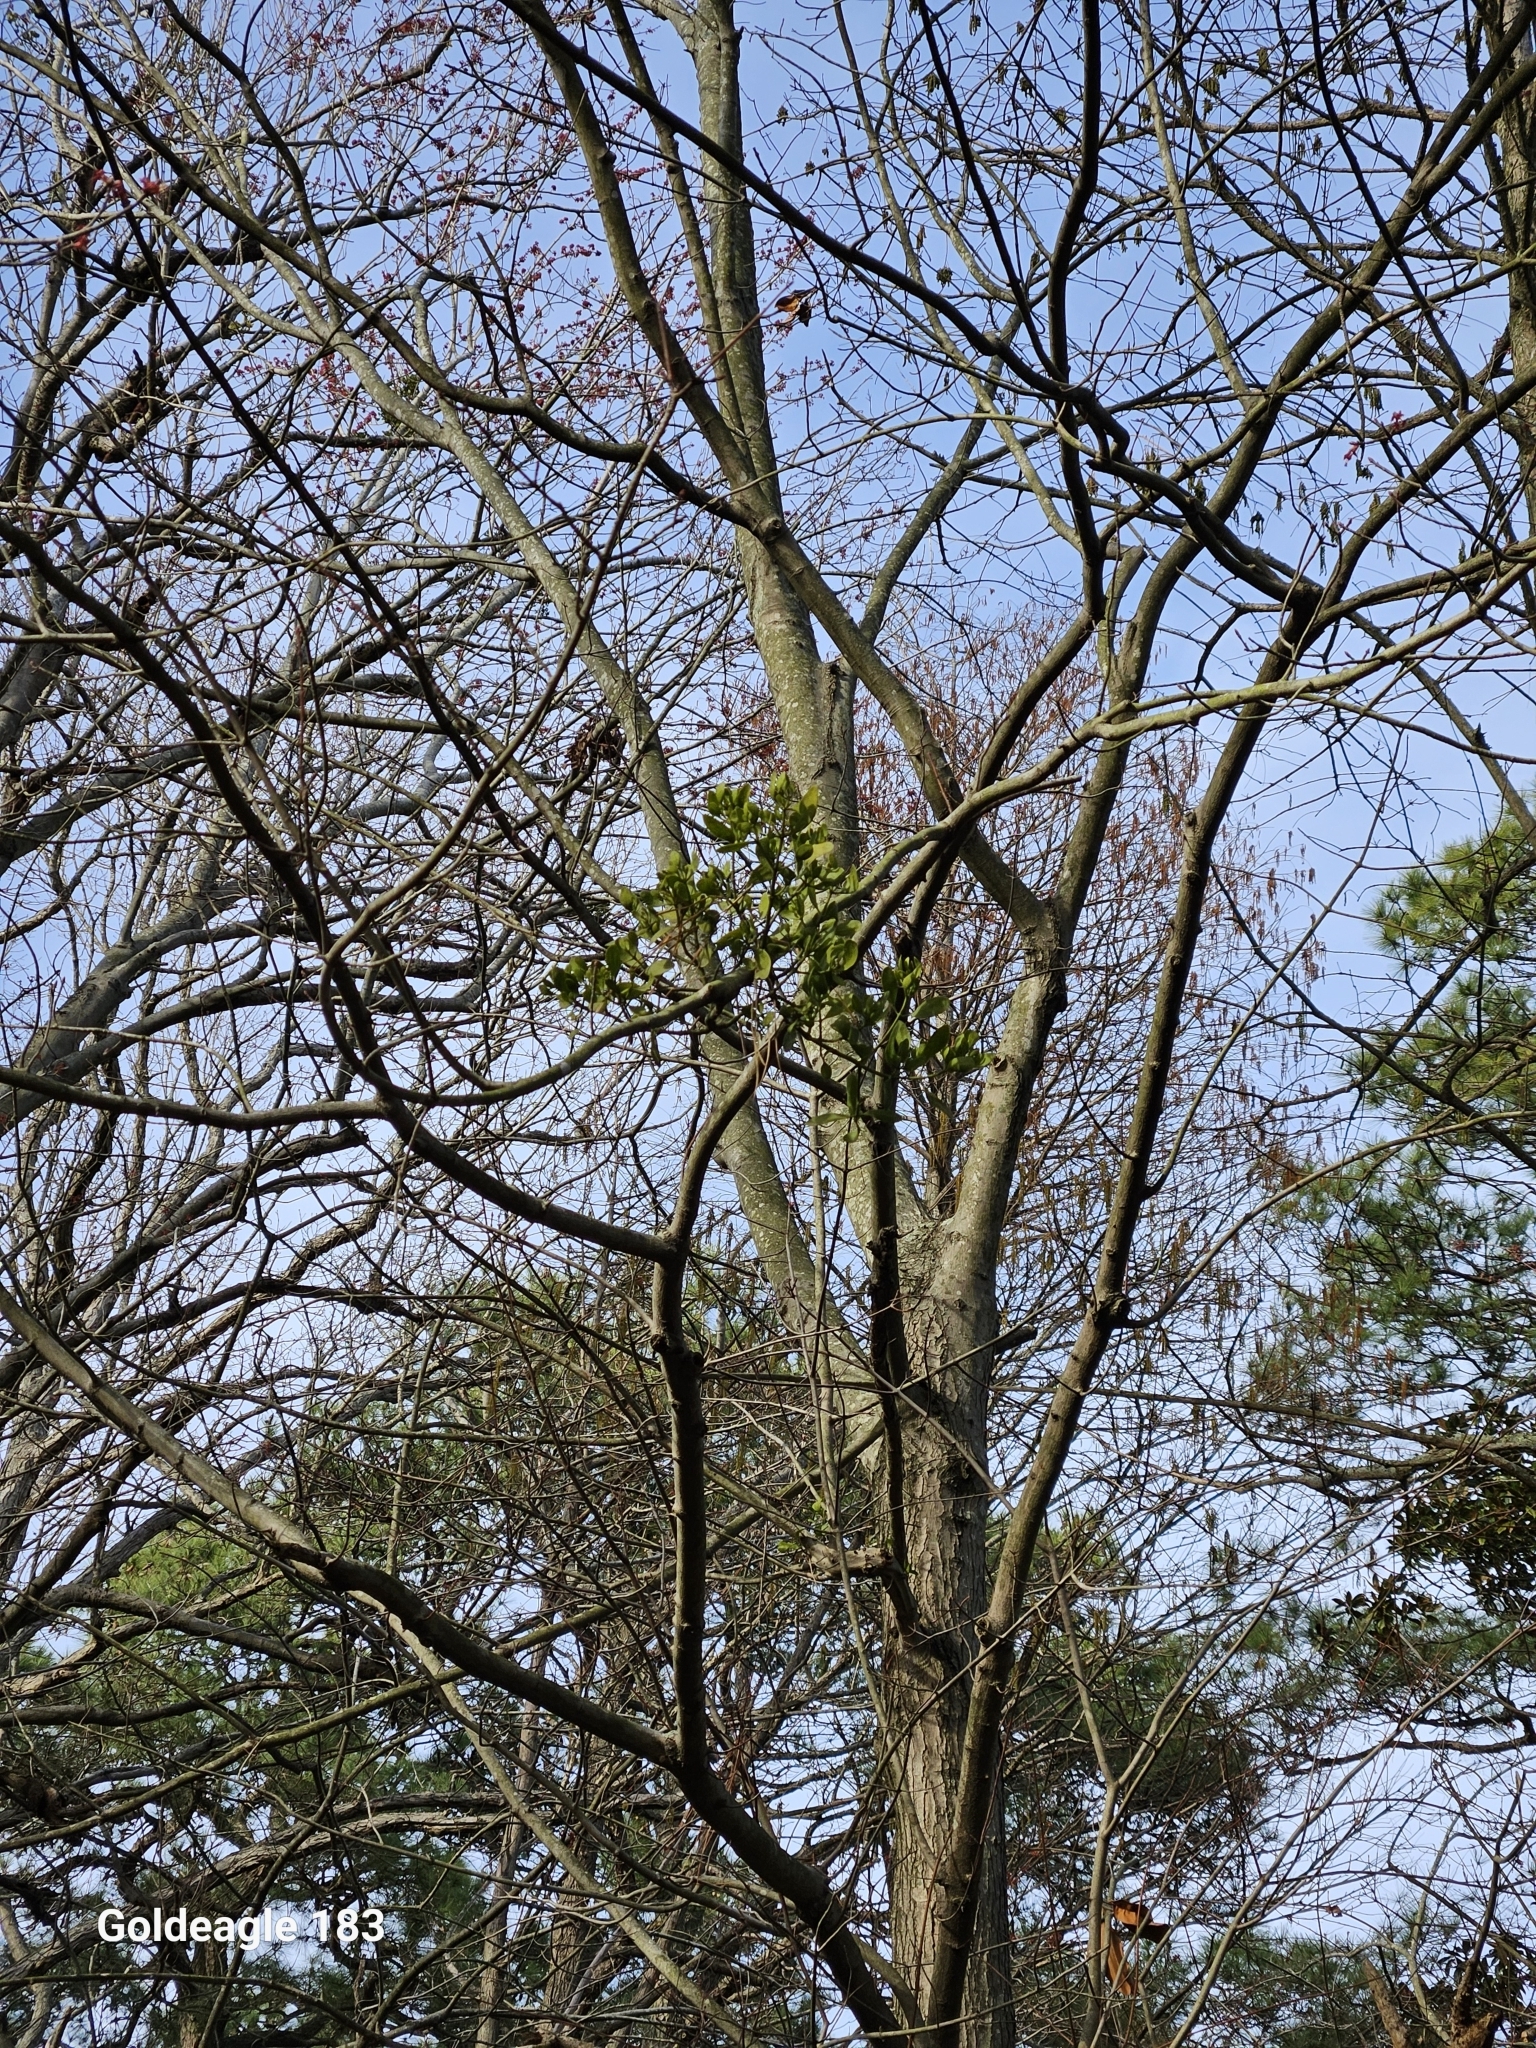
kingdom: Plantae
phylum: Tracheophyta
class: Magnoliopsida
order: Sapindales
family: Sapindaceae
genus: Acer
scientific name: Acer rubrum
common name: Red maple
